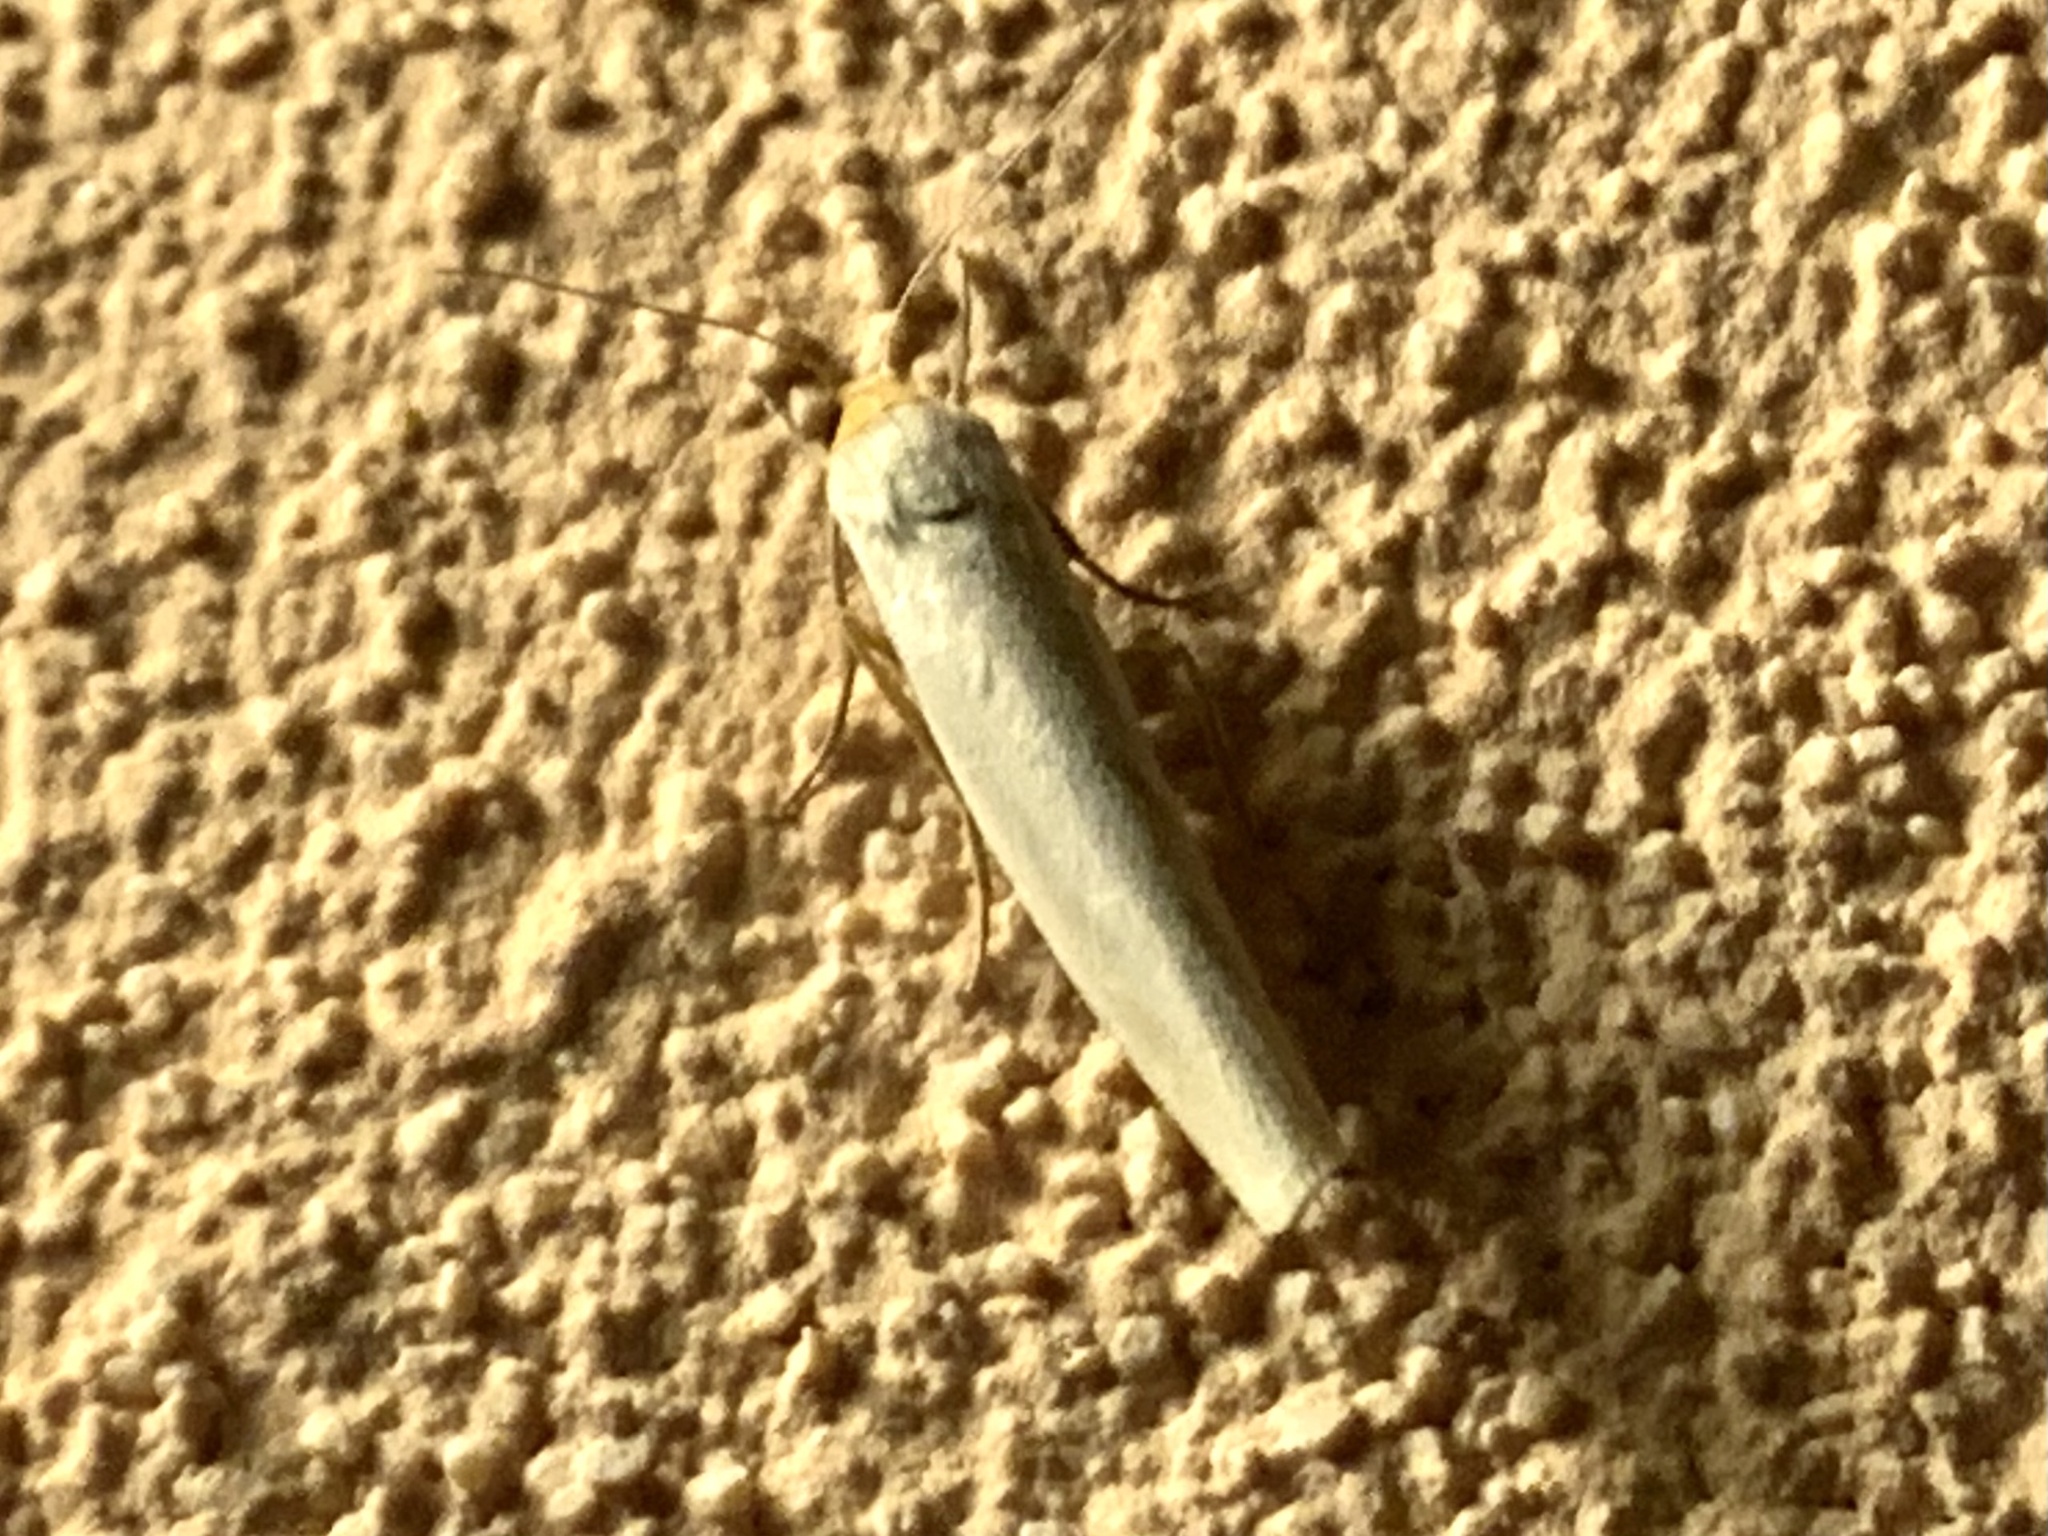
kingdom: Animalia
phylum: Arthropoda
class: Insecta
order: Lepidoptera
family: Erebidae
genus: Eilema
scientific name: Eilema caniola
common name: Hoary footman
